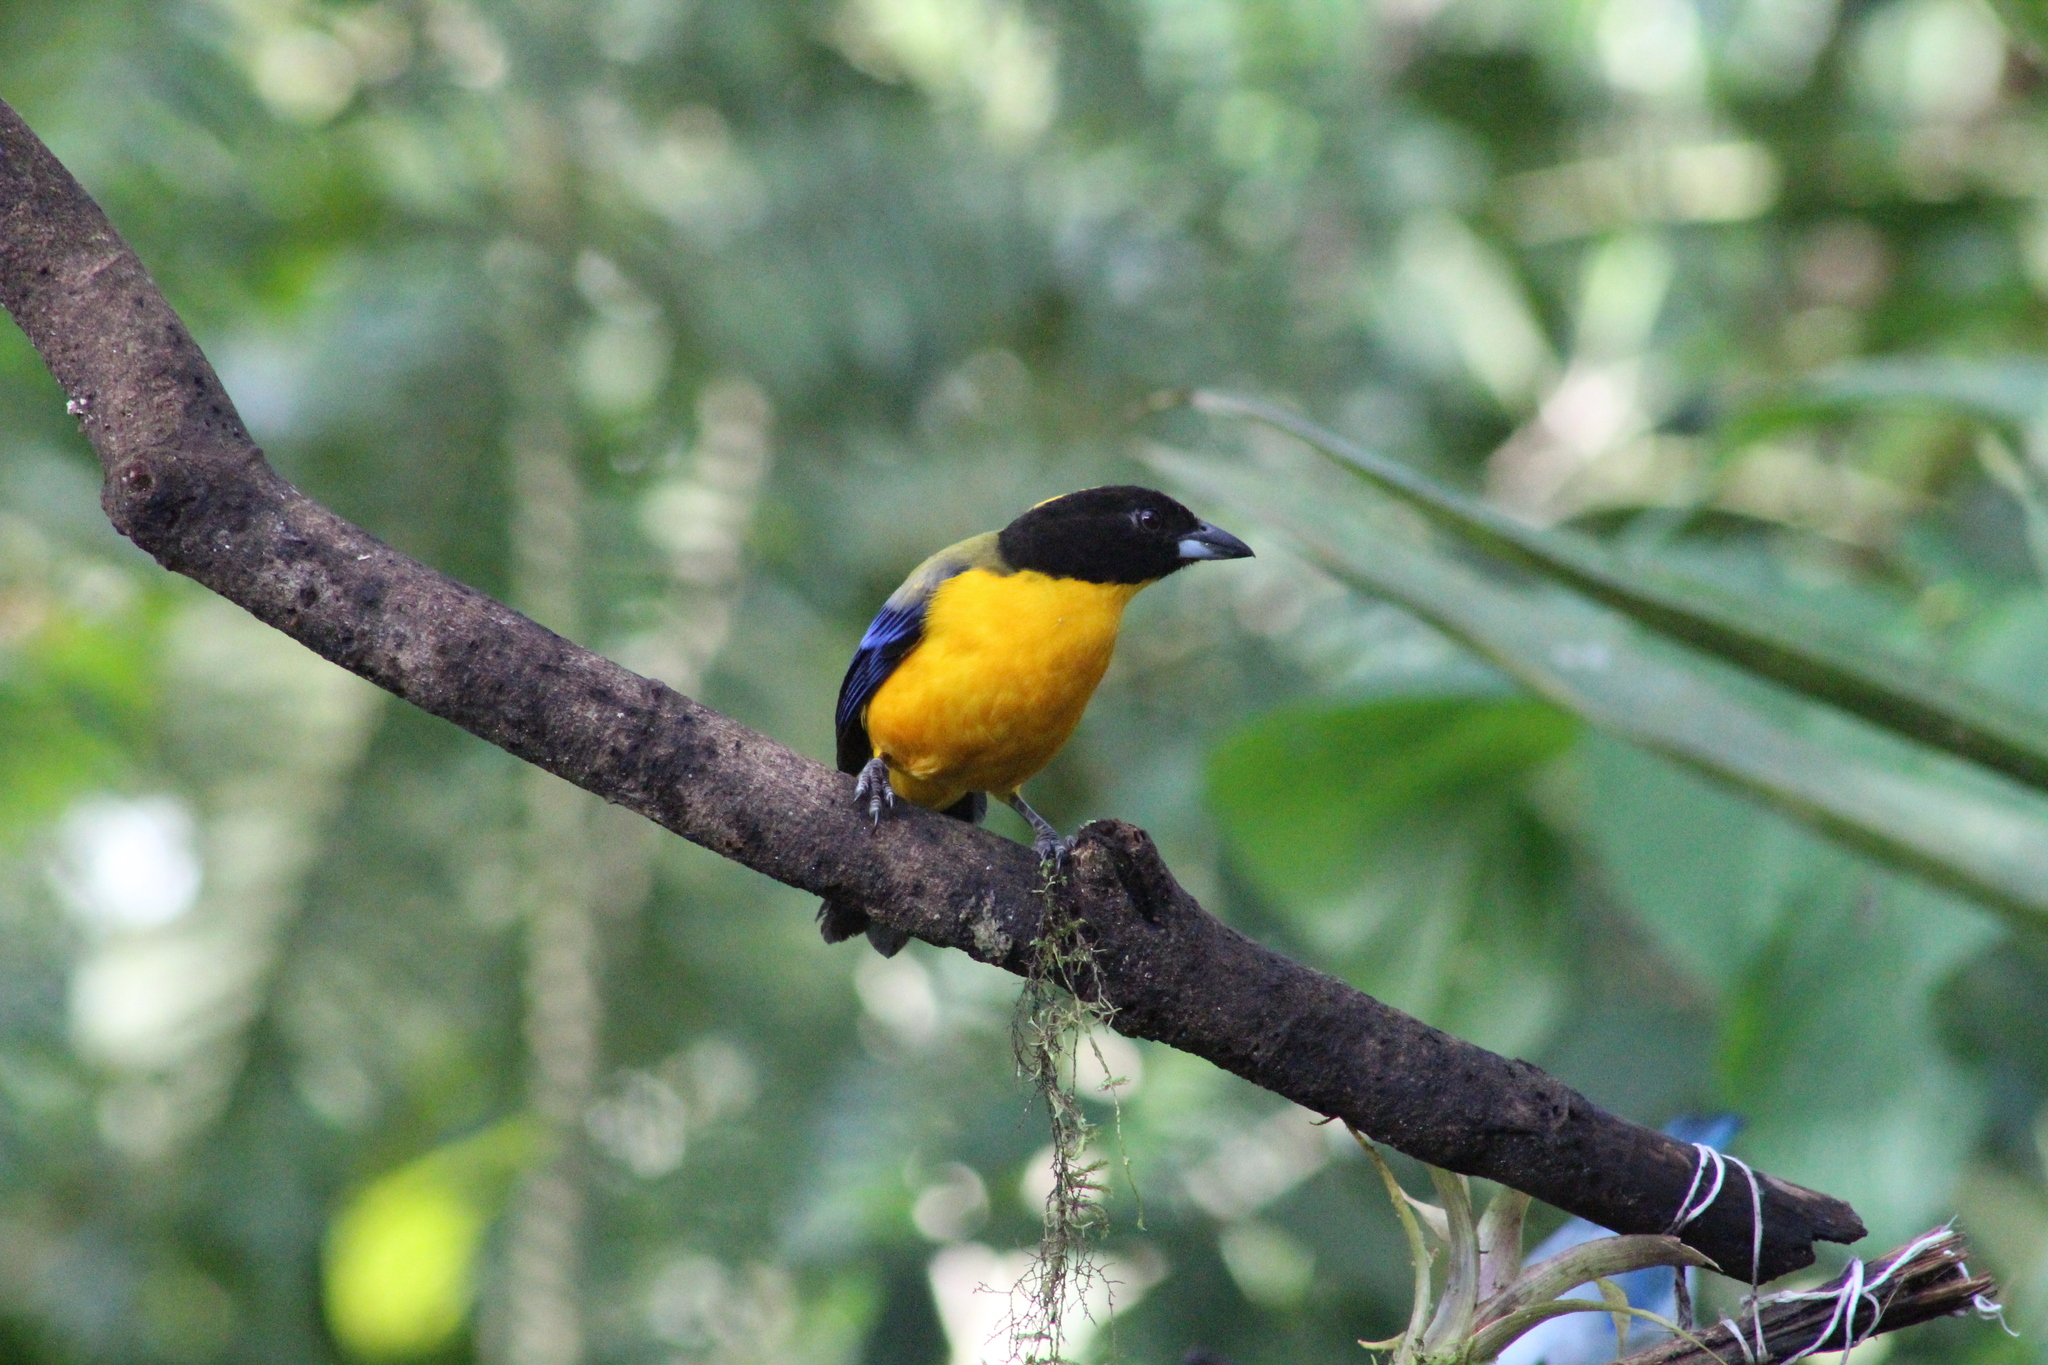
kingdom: Animalia
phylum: Chordata
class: Aves
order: Passeriformes
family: Thraupidae
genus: Anisognathus
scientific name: Anisognathus notabilis
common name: Black-chinned mountain tanager
